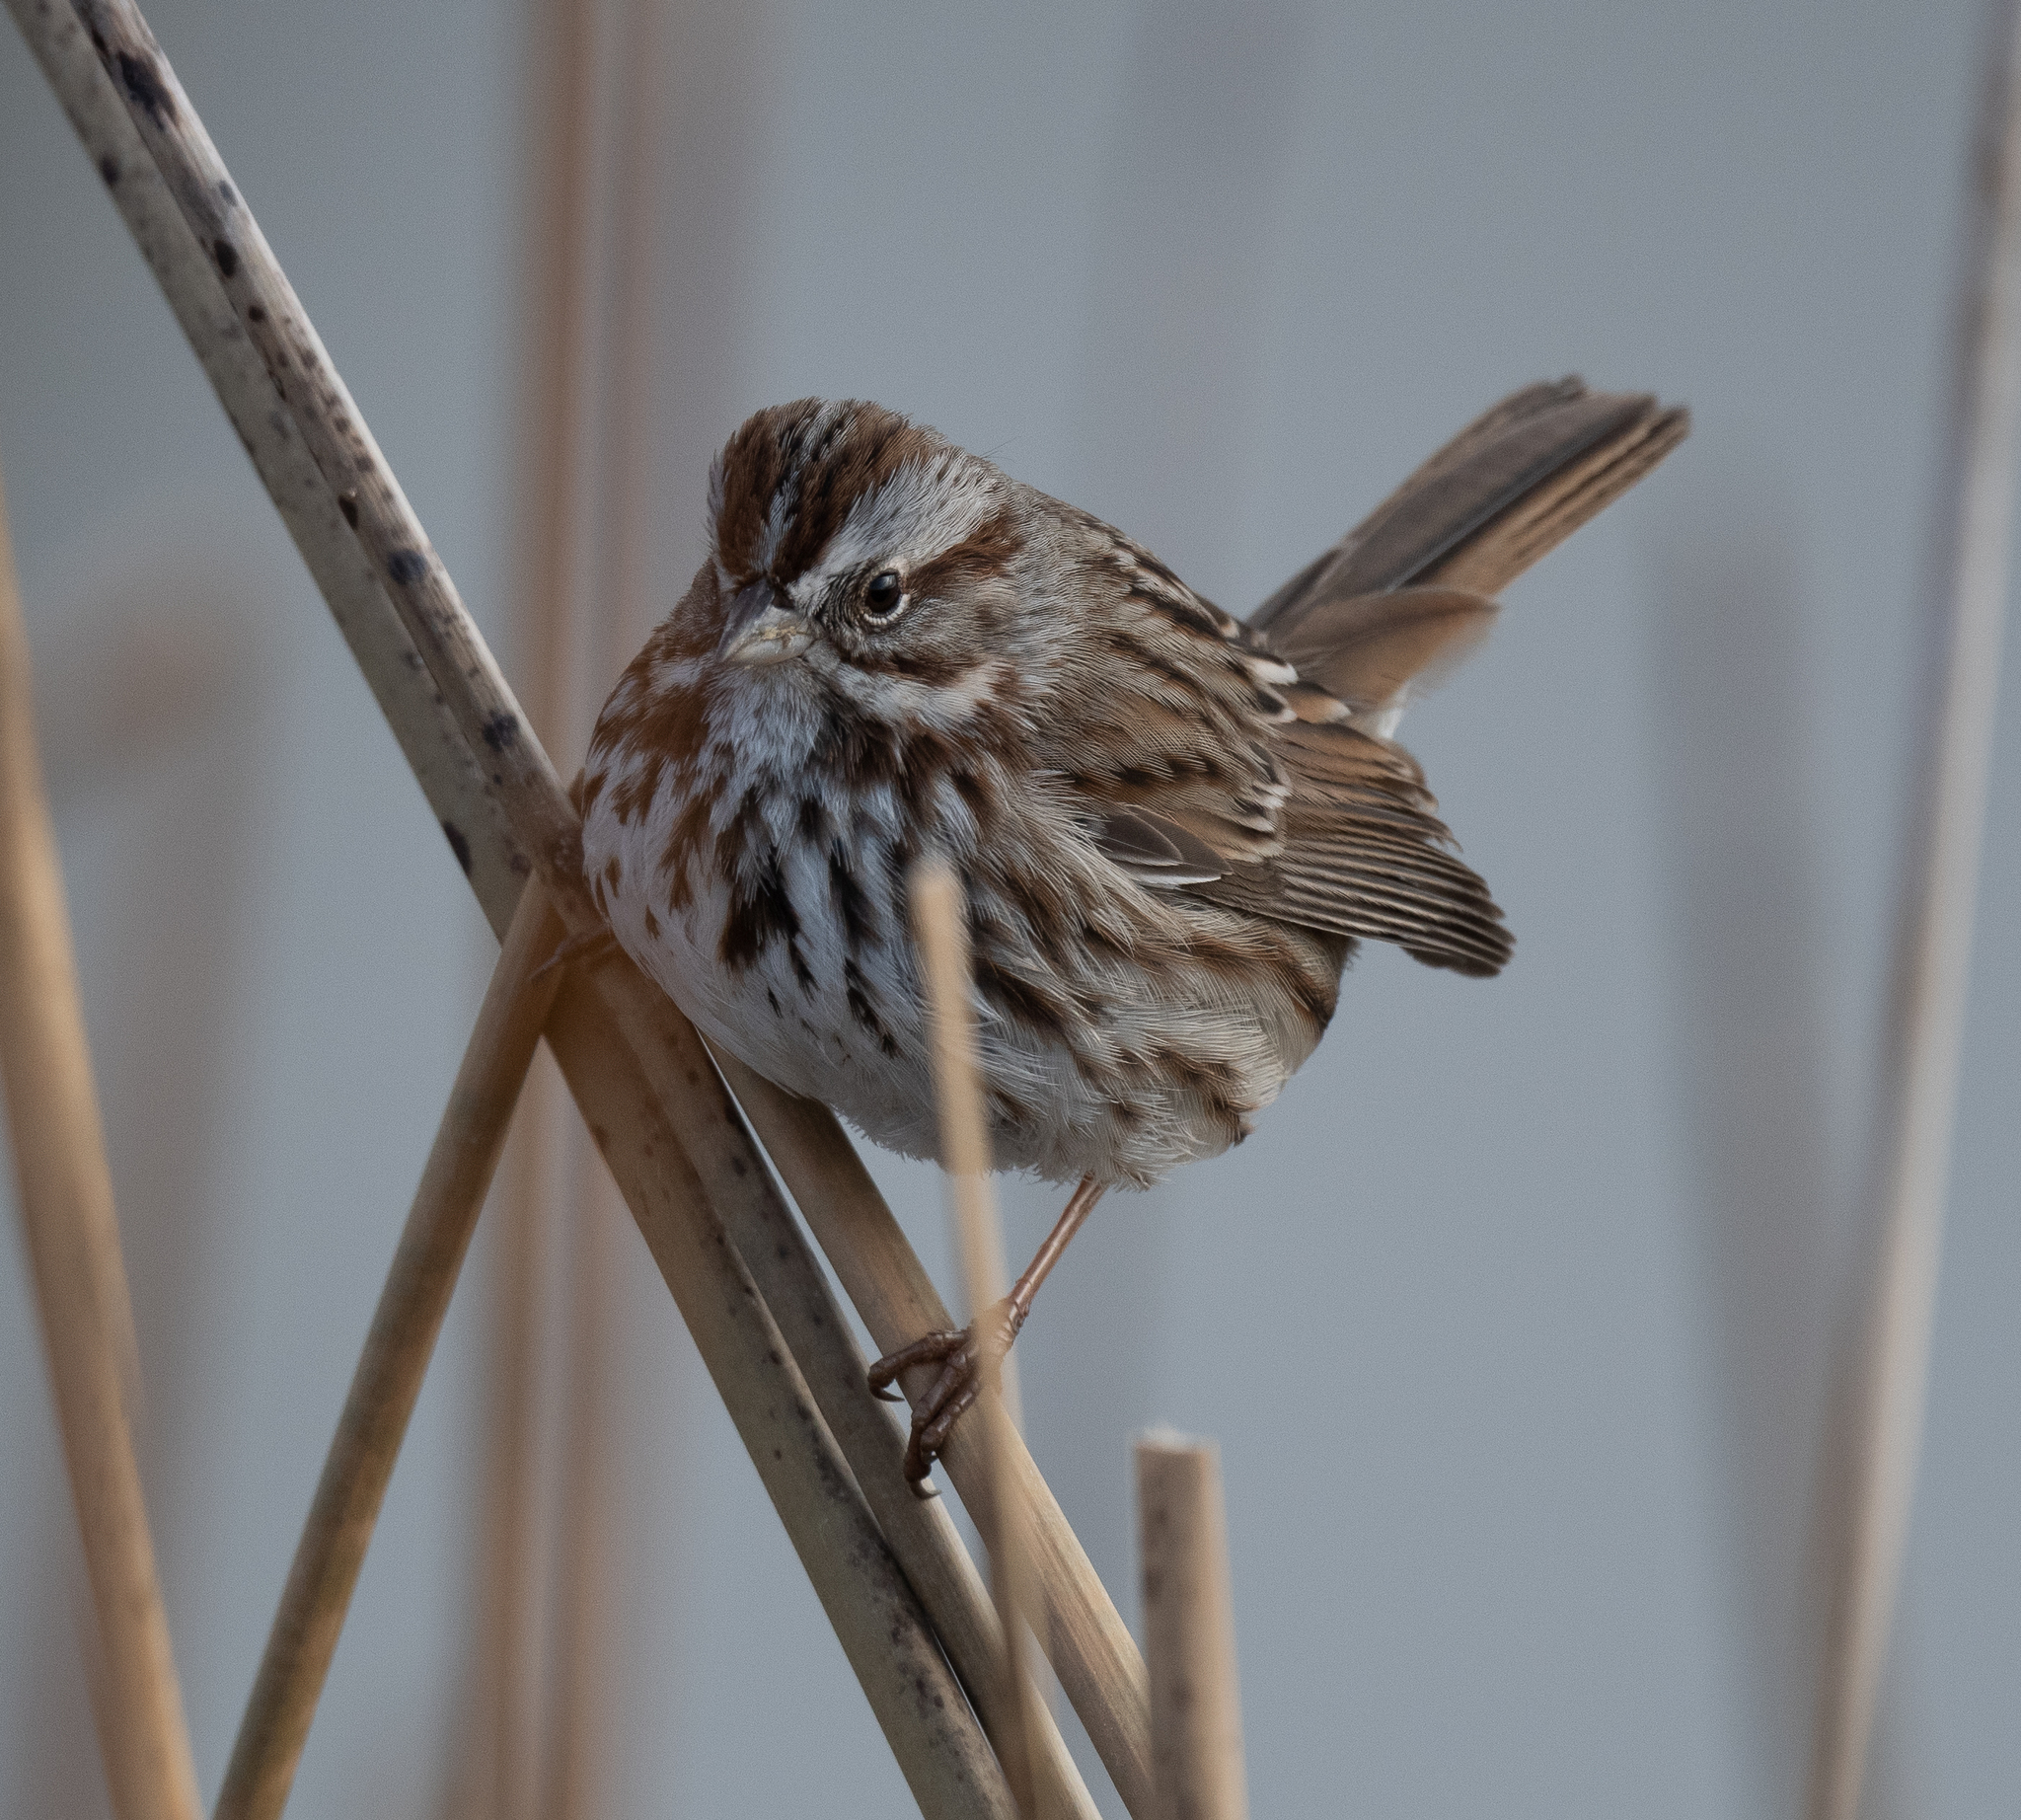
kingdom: Animalia
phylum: Chordata
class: Aves
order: Passeriformes
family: Passerellidae
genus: Melospiza
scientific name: Melospiza melodia
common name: Song sparrow
